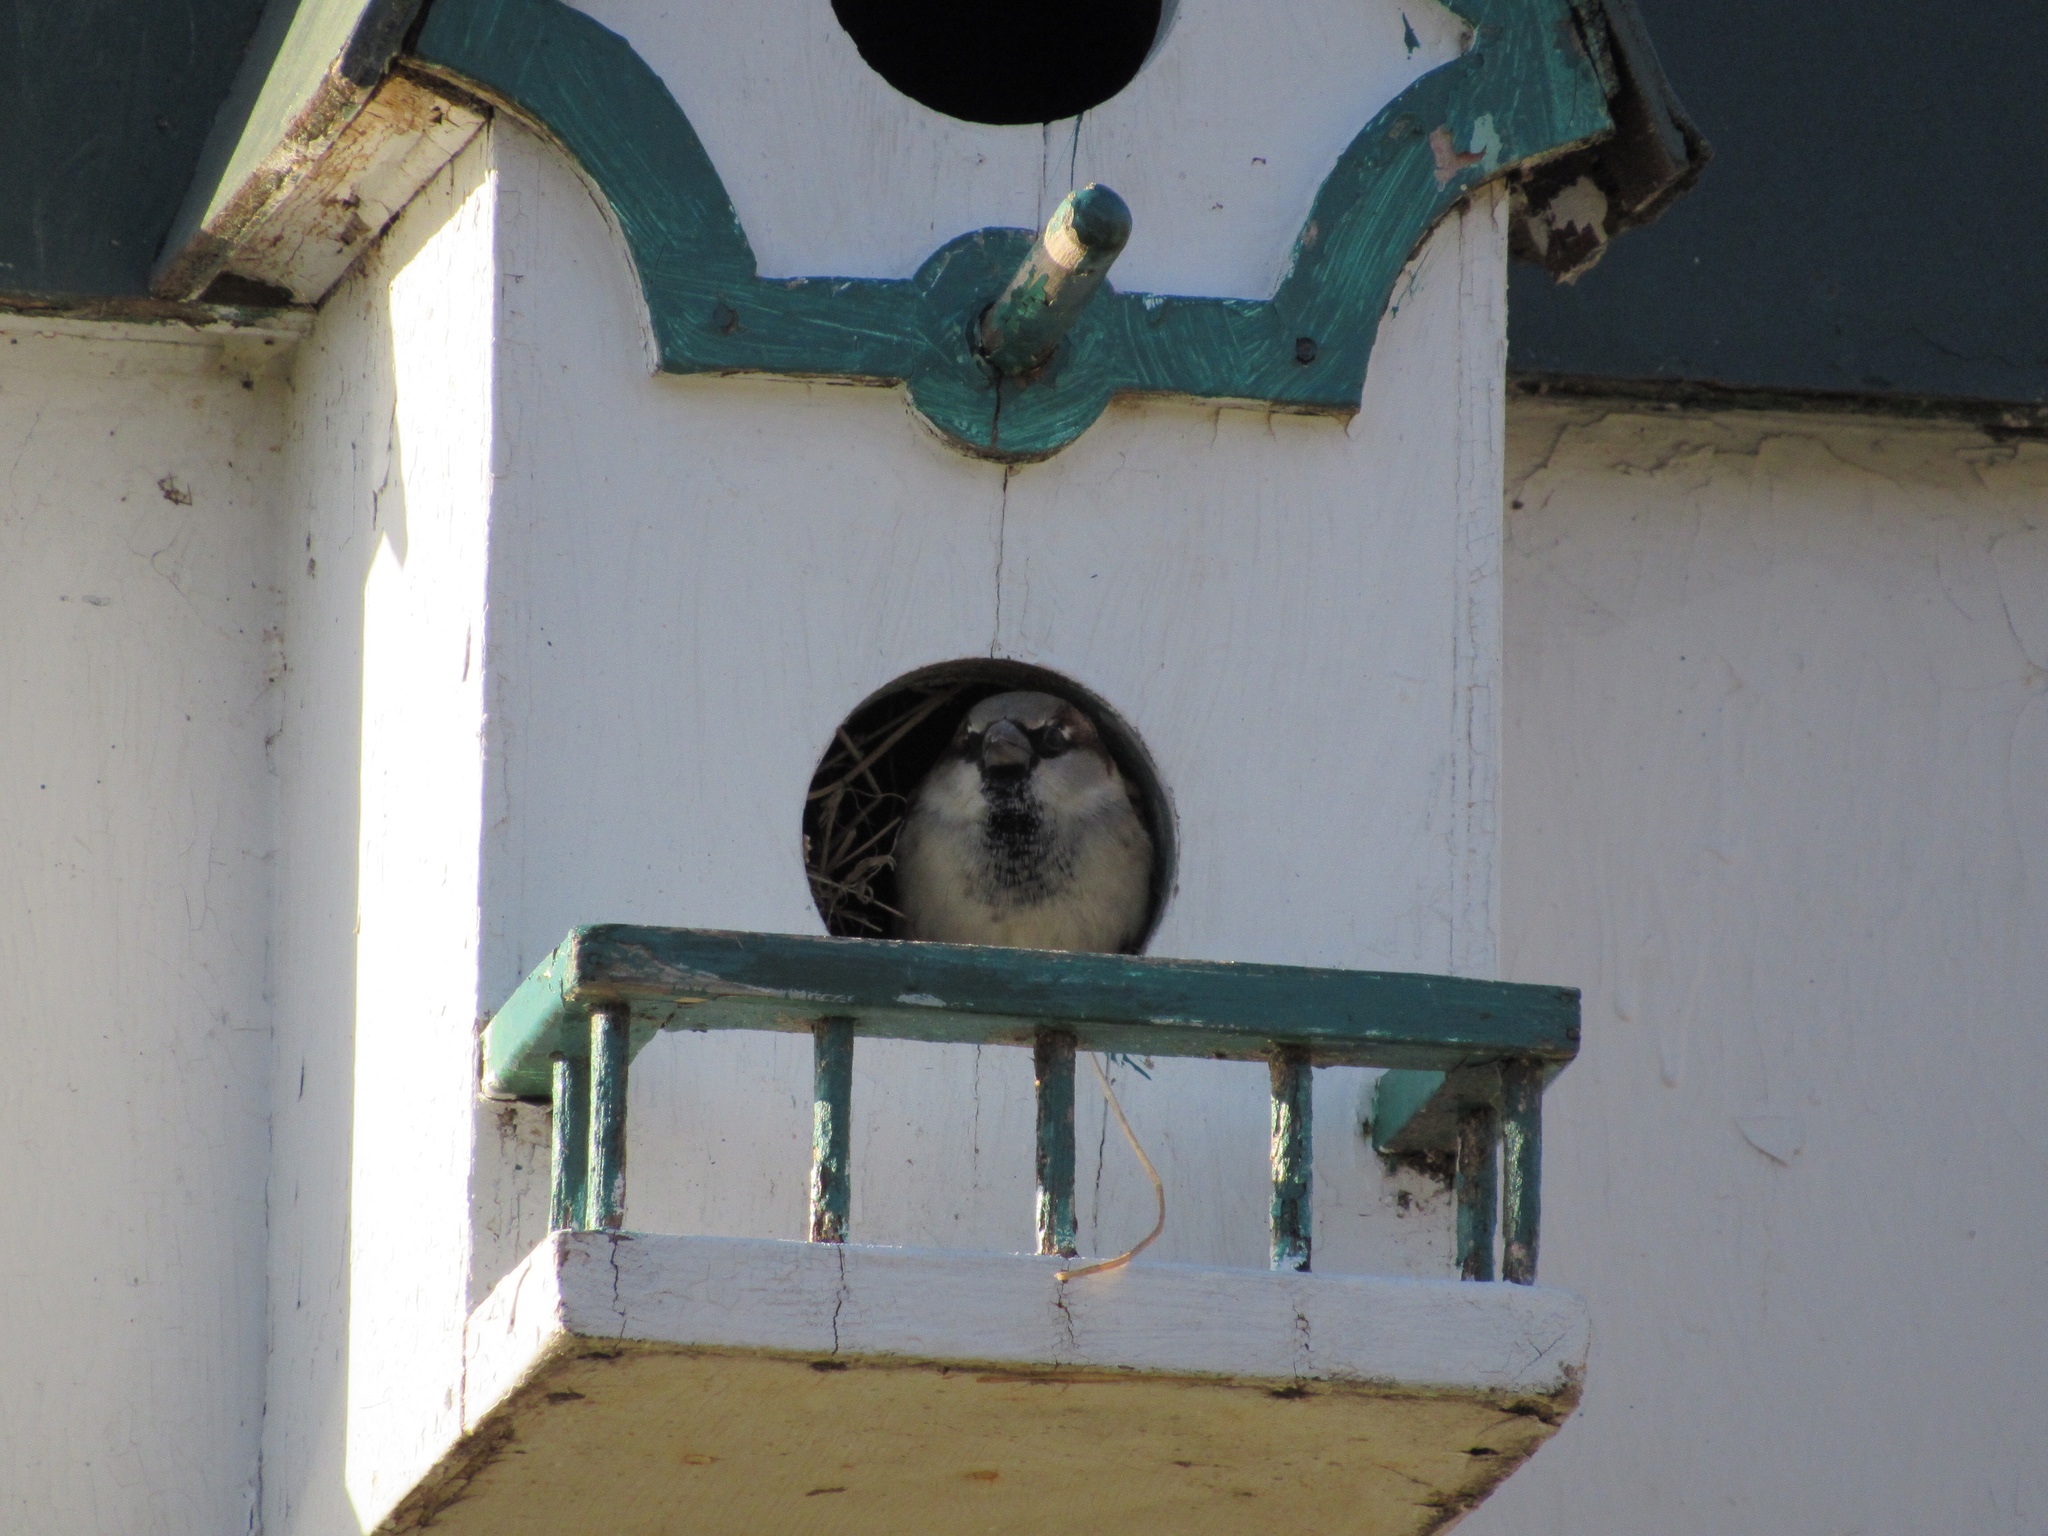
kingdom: Animalia
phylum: Chordata
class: Aves
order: Passeriformes
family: Passeridae
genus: Passer
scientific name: Passer domesticus
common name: House sparrow
